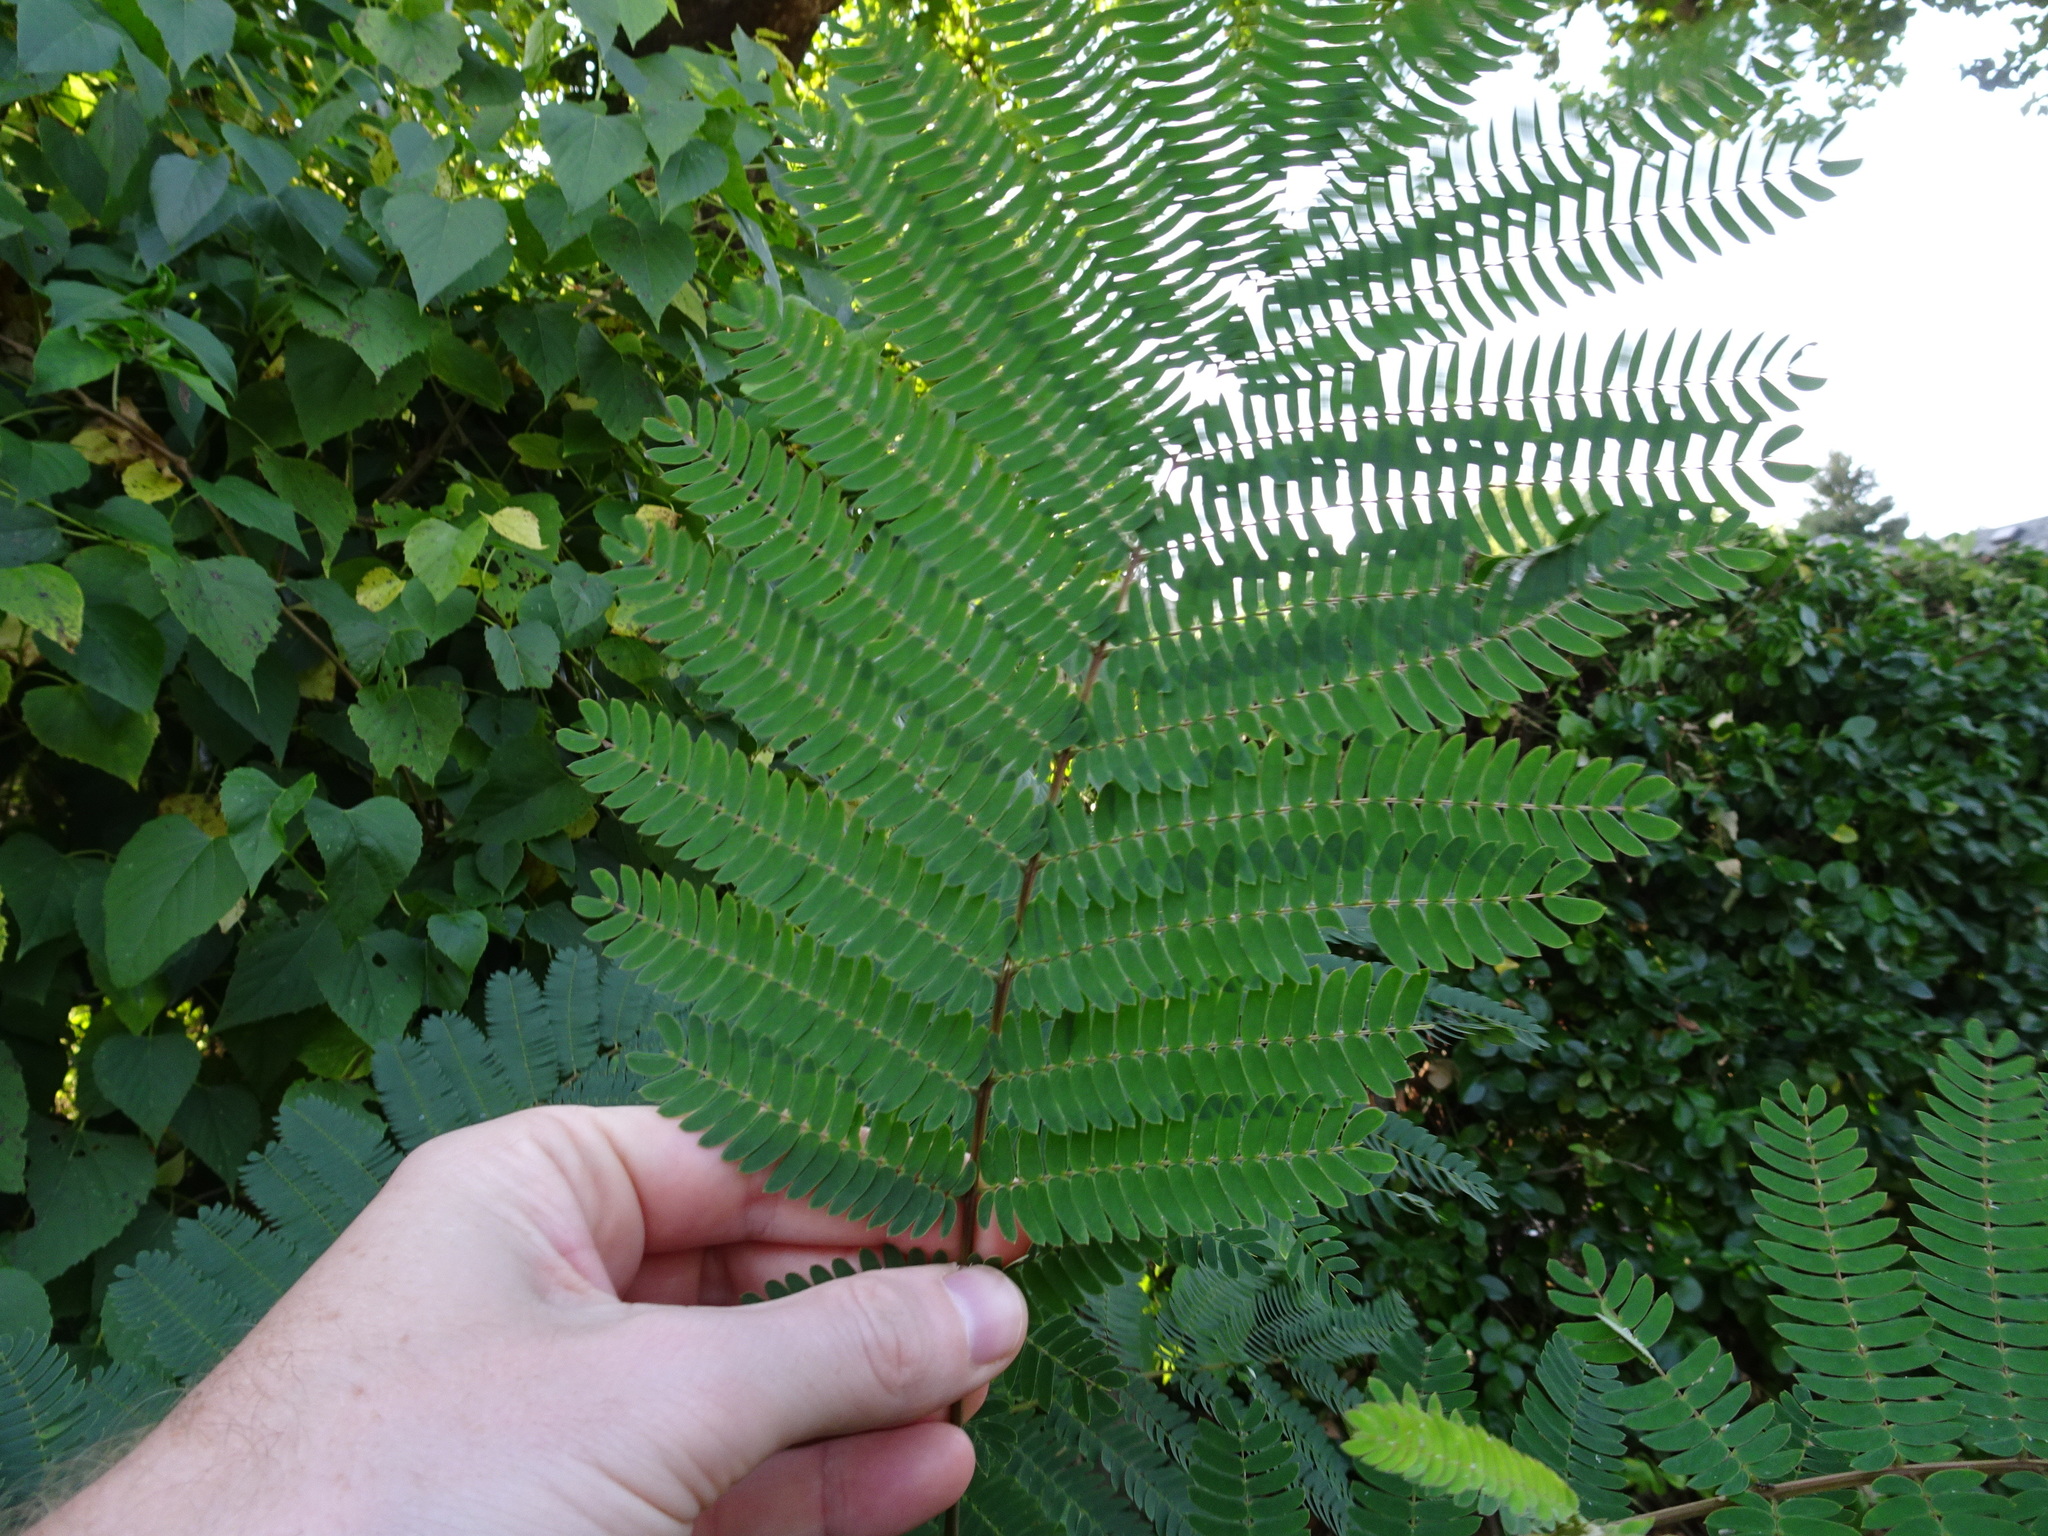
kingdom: Plantae
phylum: Tracheophyta
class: Magnoliopsida
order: Fabales
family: Fabaceae
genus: Albizia
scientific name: Albizia julibrissin
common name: Silktree
